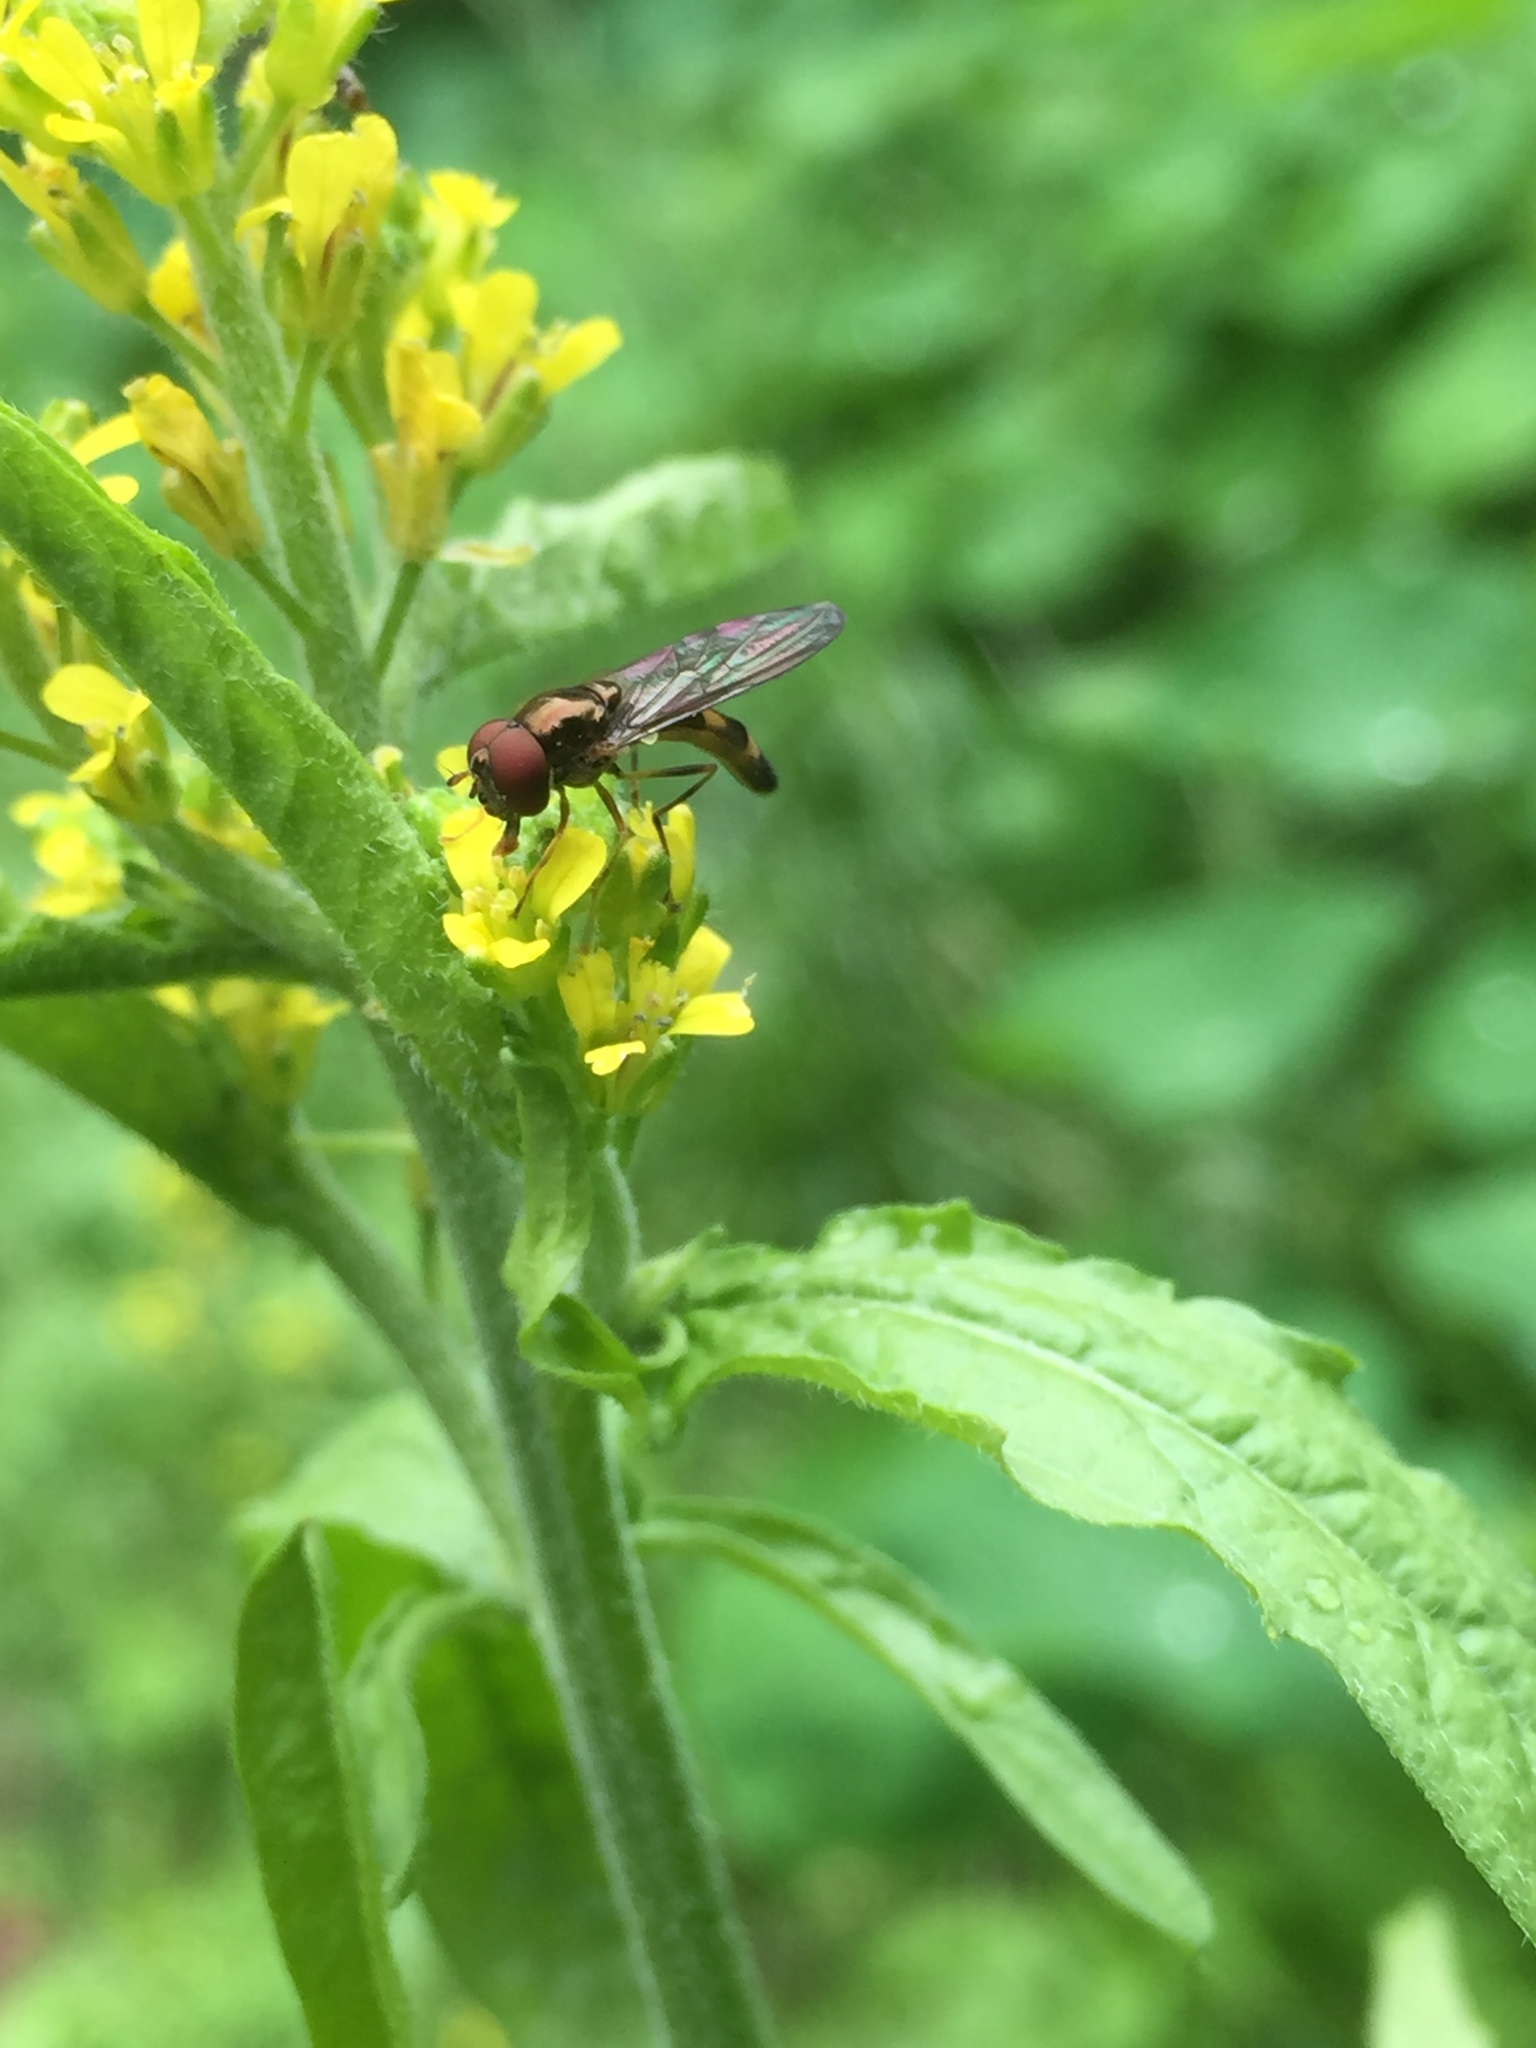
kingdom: Animalia
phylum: Arthropoda
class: Insecta
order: Diptera
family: Syrphidae
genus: Melanostoma
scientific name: Melanostoma mellina
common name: Hover fly
